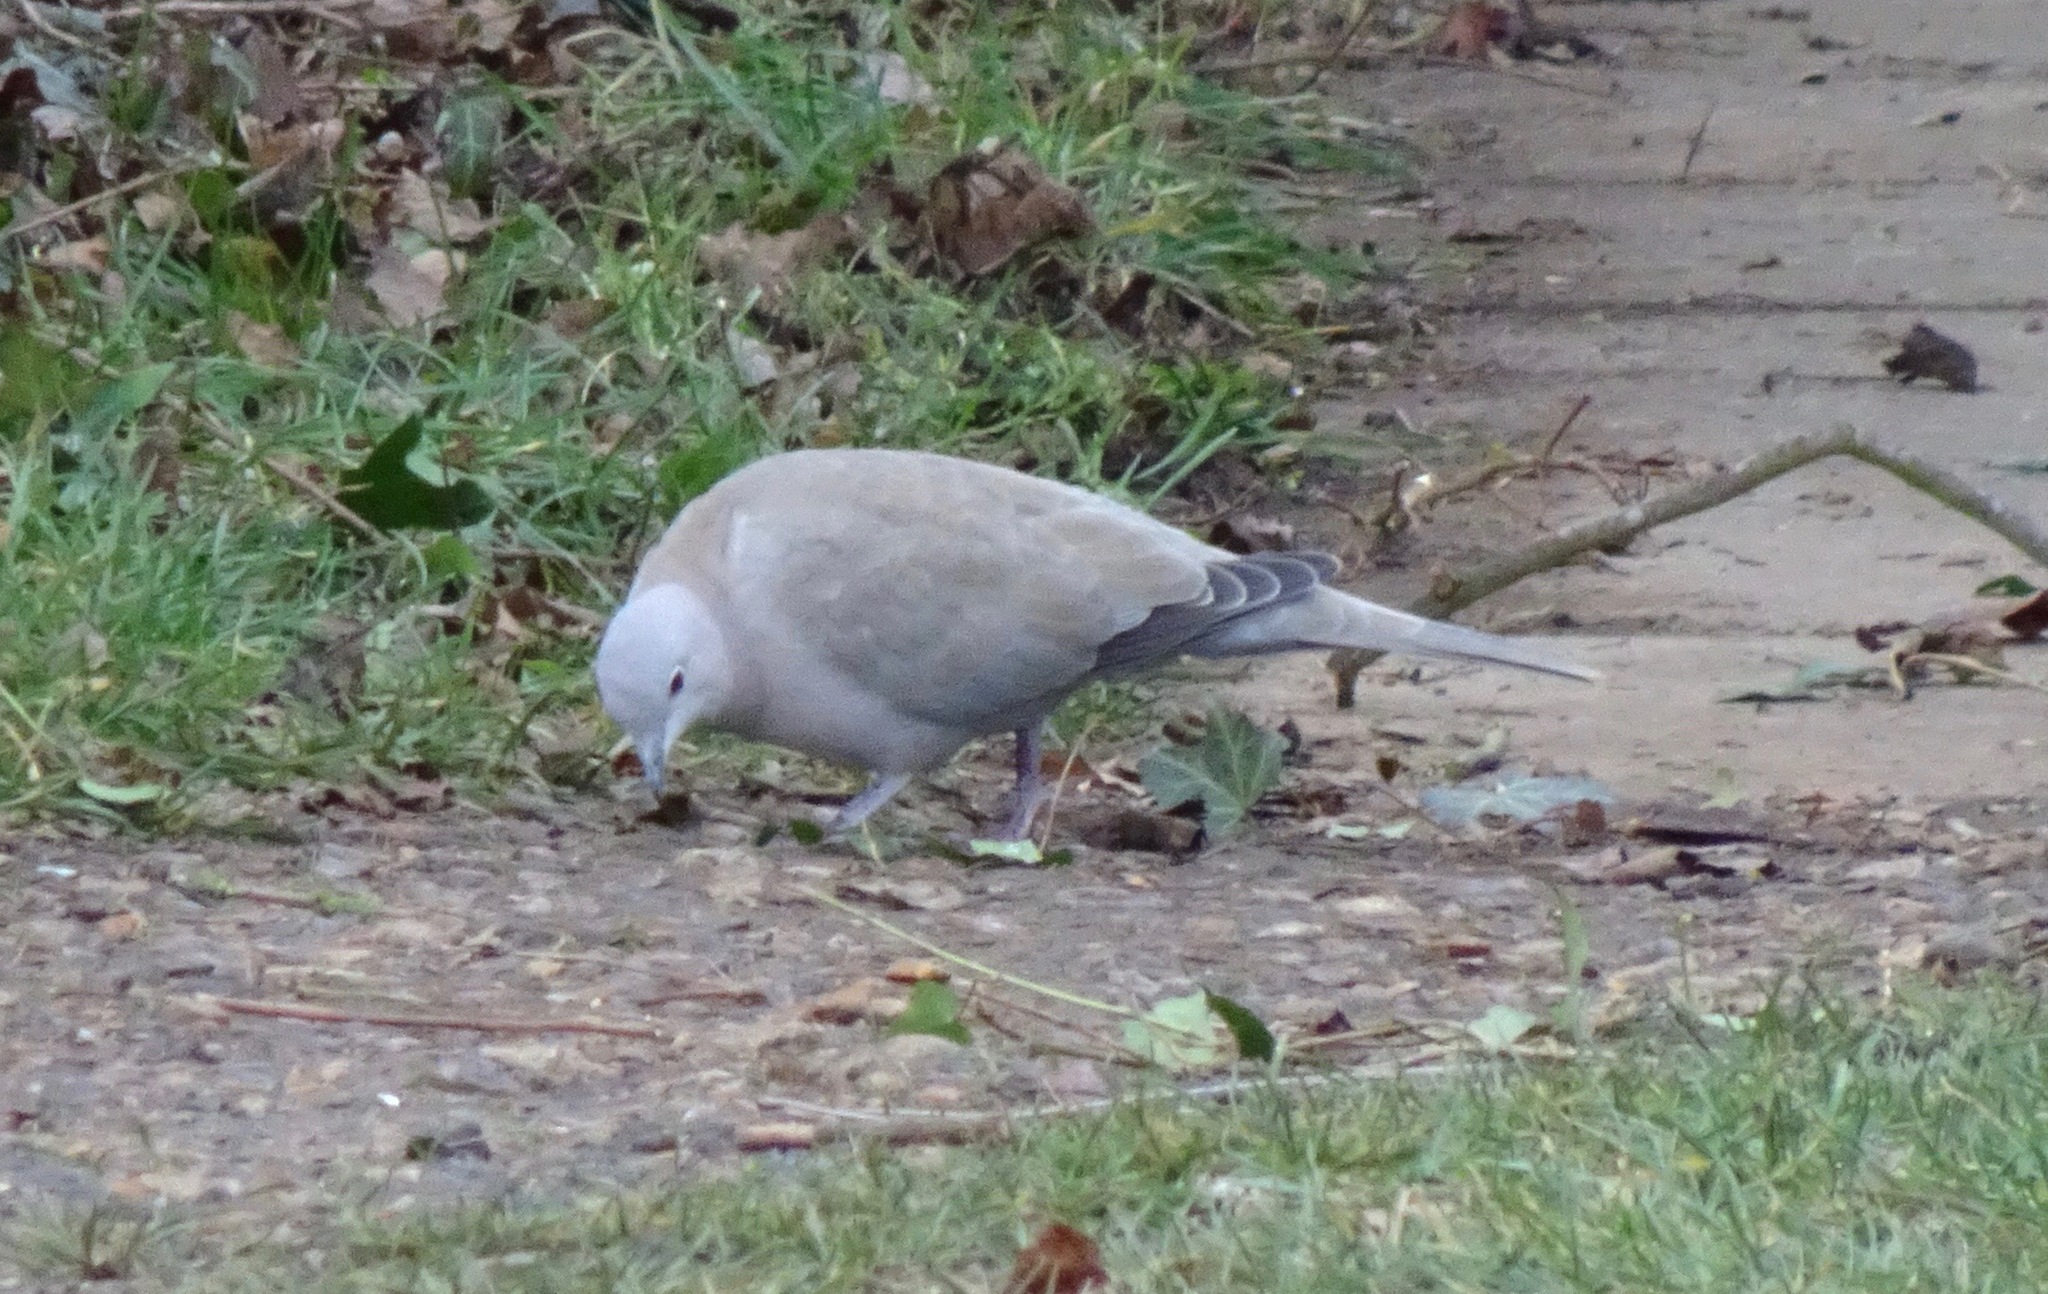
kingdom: Animalia
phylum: Chordata
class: Aves
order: Columbiformes
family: Columbidae
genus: Streptopelia
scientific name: Streptopelia decaocto
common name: Eurasian collared dove
